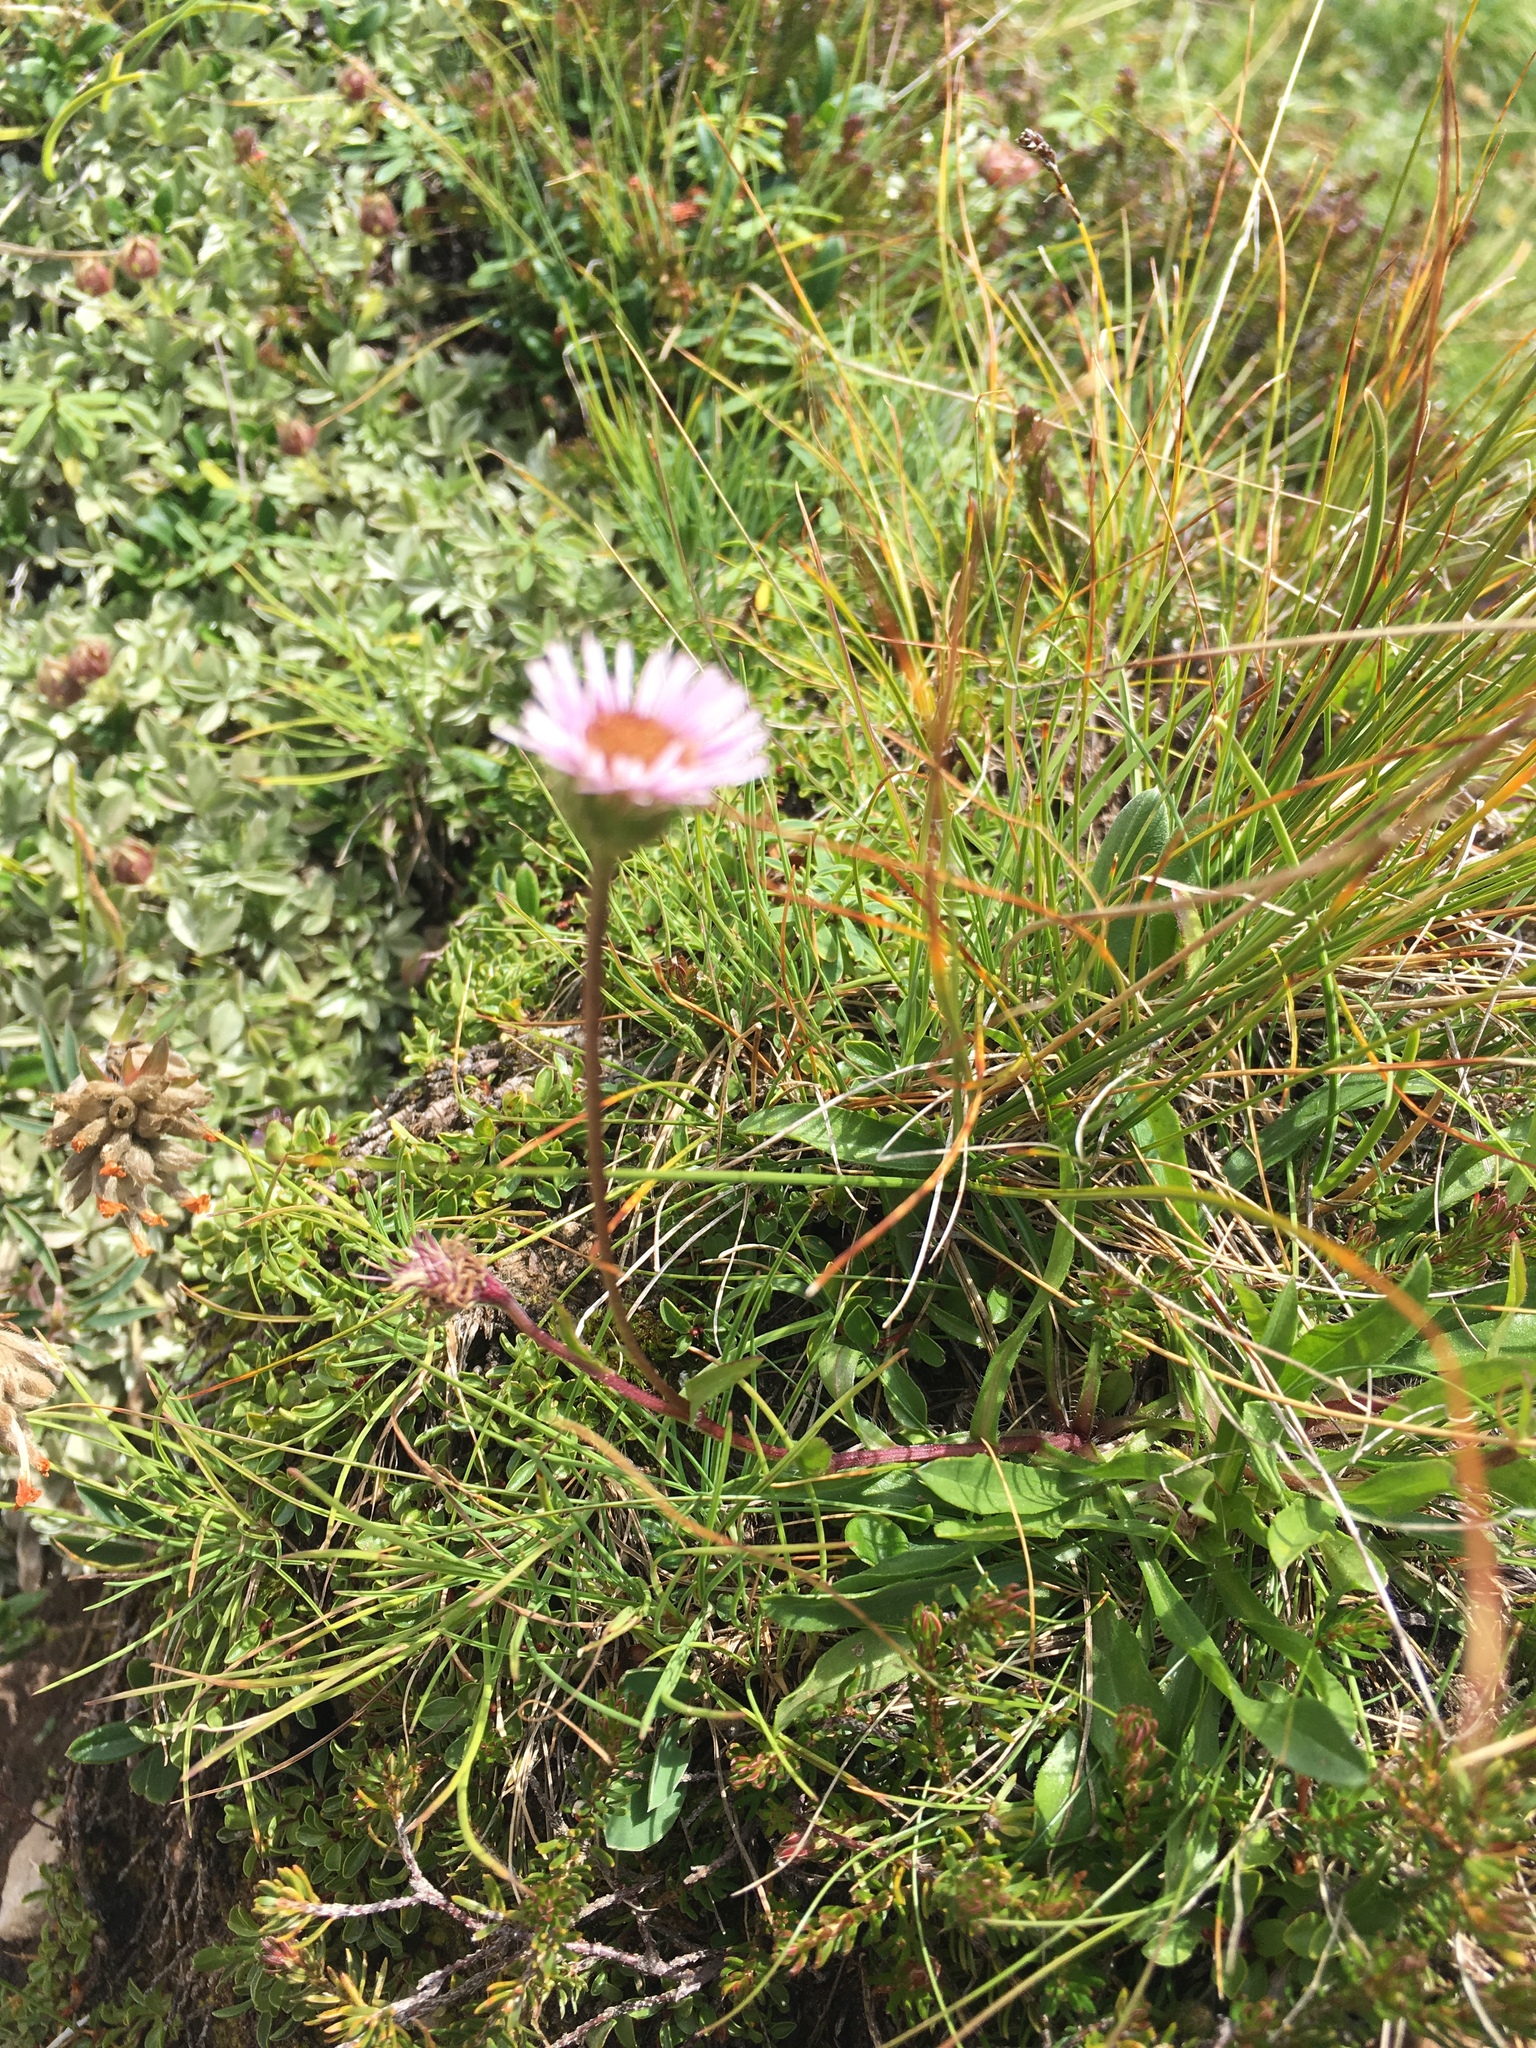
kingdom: Plantae
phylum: Tracheophyta
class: Magnoliopsida
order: Asterales
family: Asteraceae
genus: Erigeron
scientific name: Erigeron alpinus
